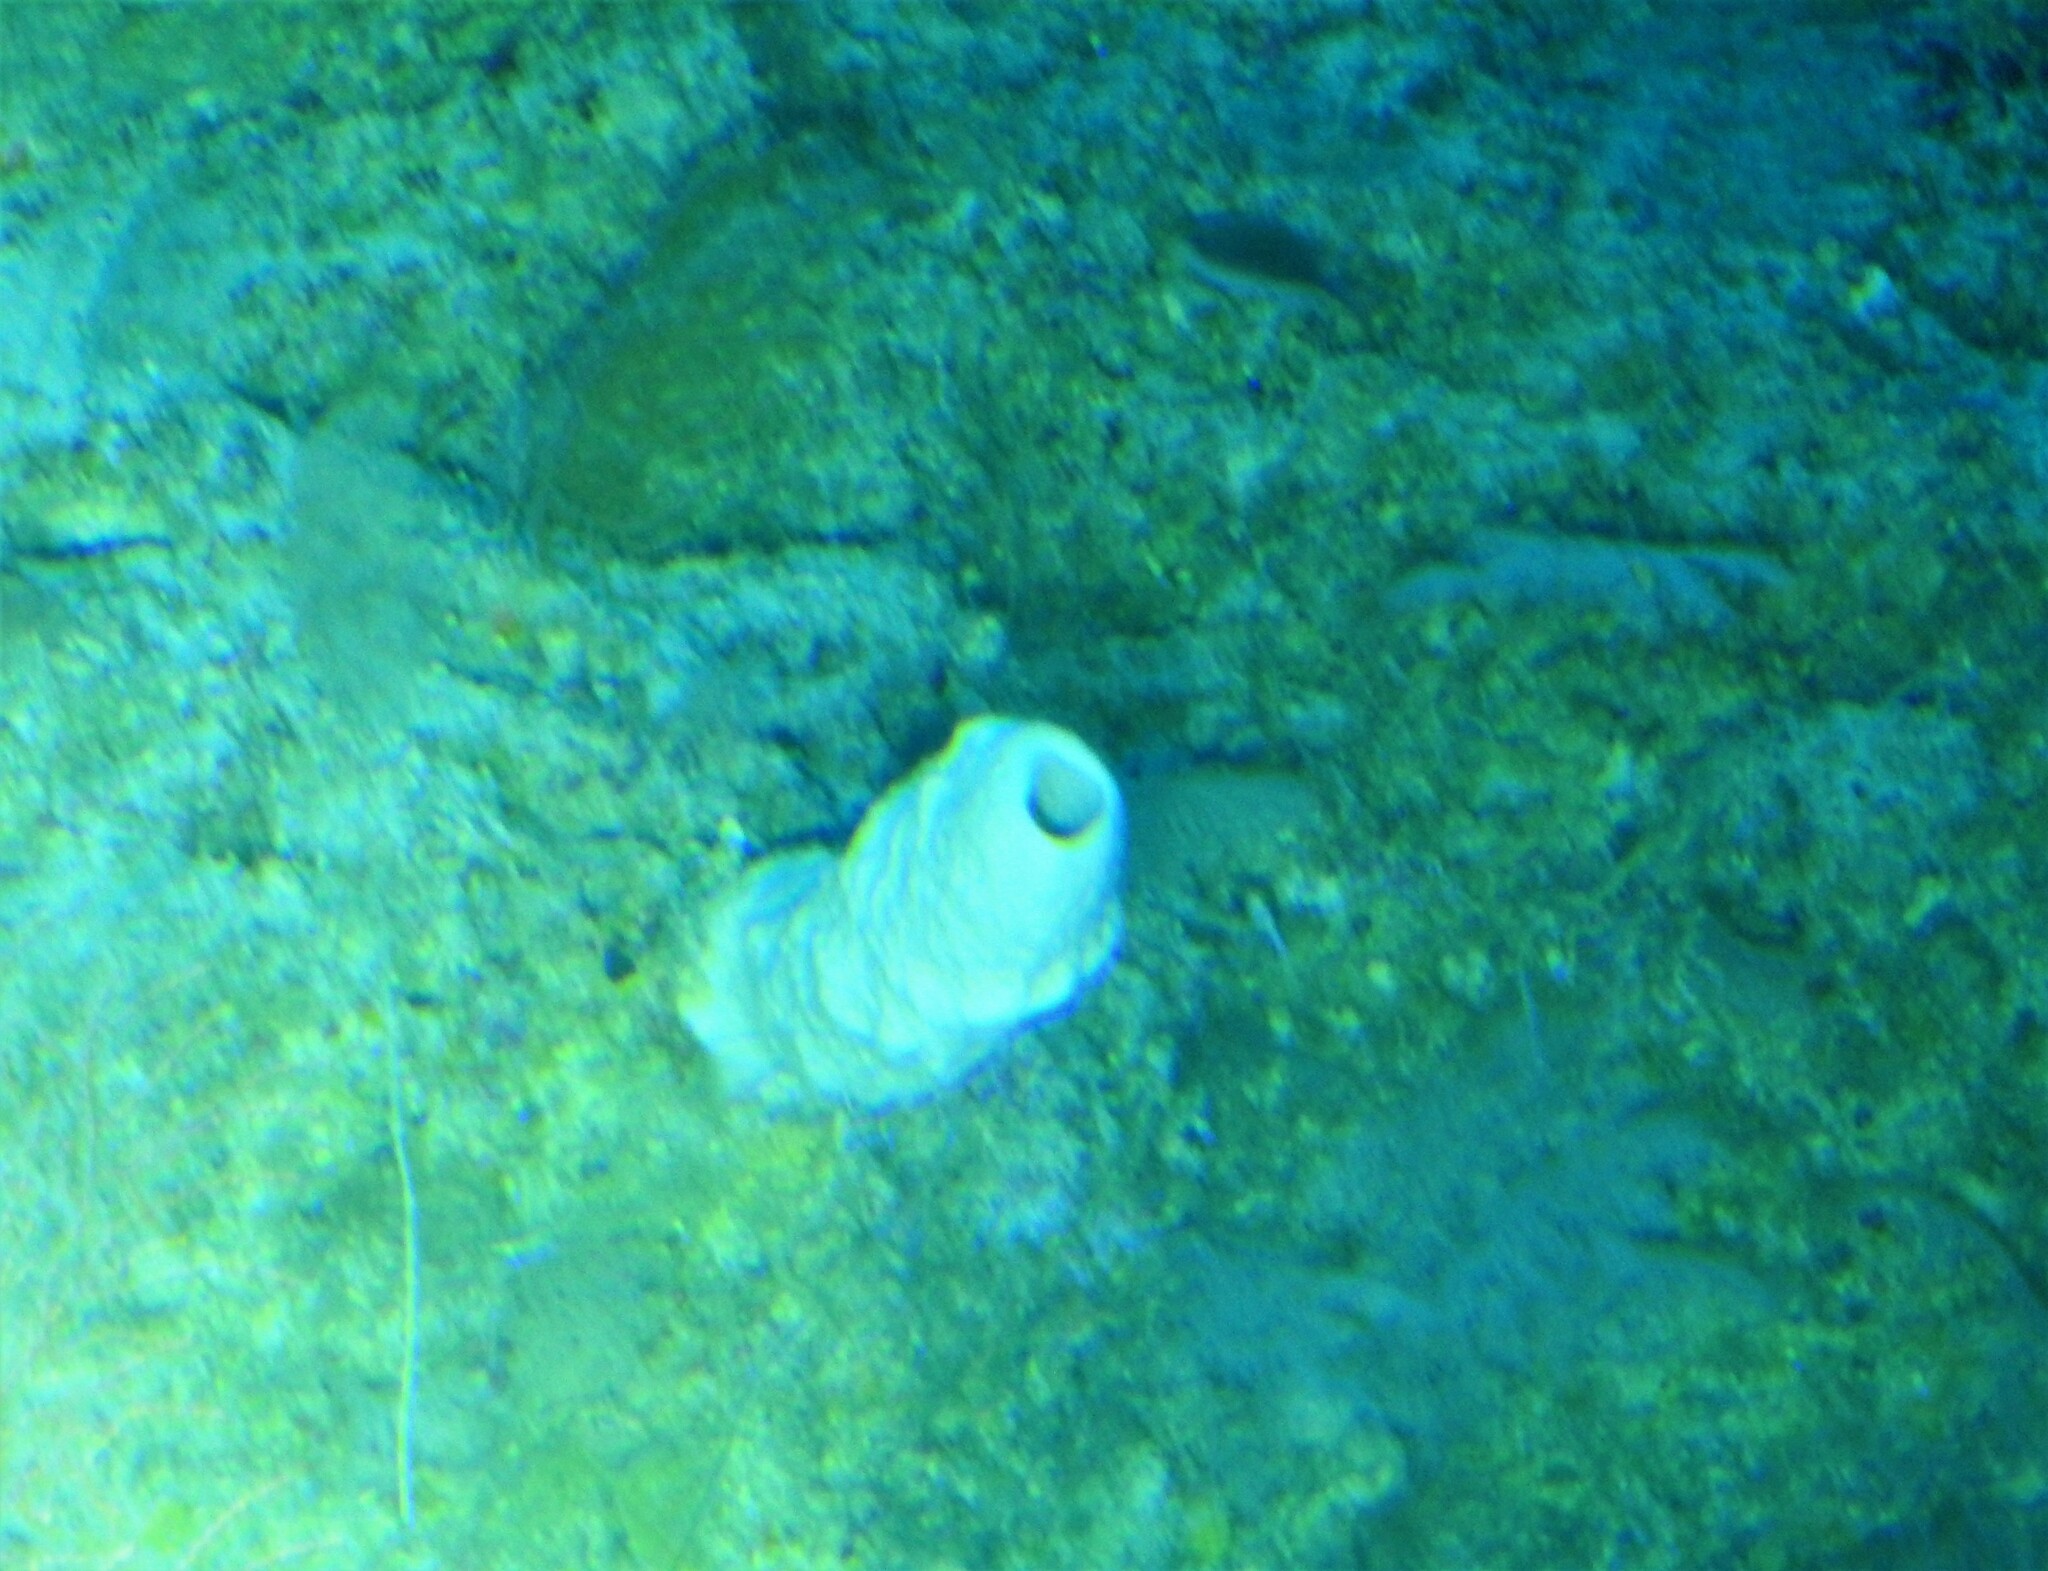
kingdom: Animalia
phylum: Porifera
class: Demospongiae
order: Verongiida
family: Aplysinidae
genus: Aplysina
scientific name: Aplysina archeri
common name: Stove-pipe sponge
